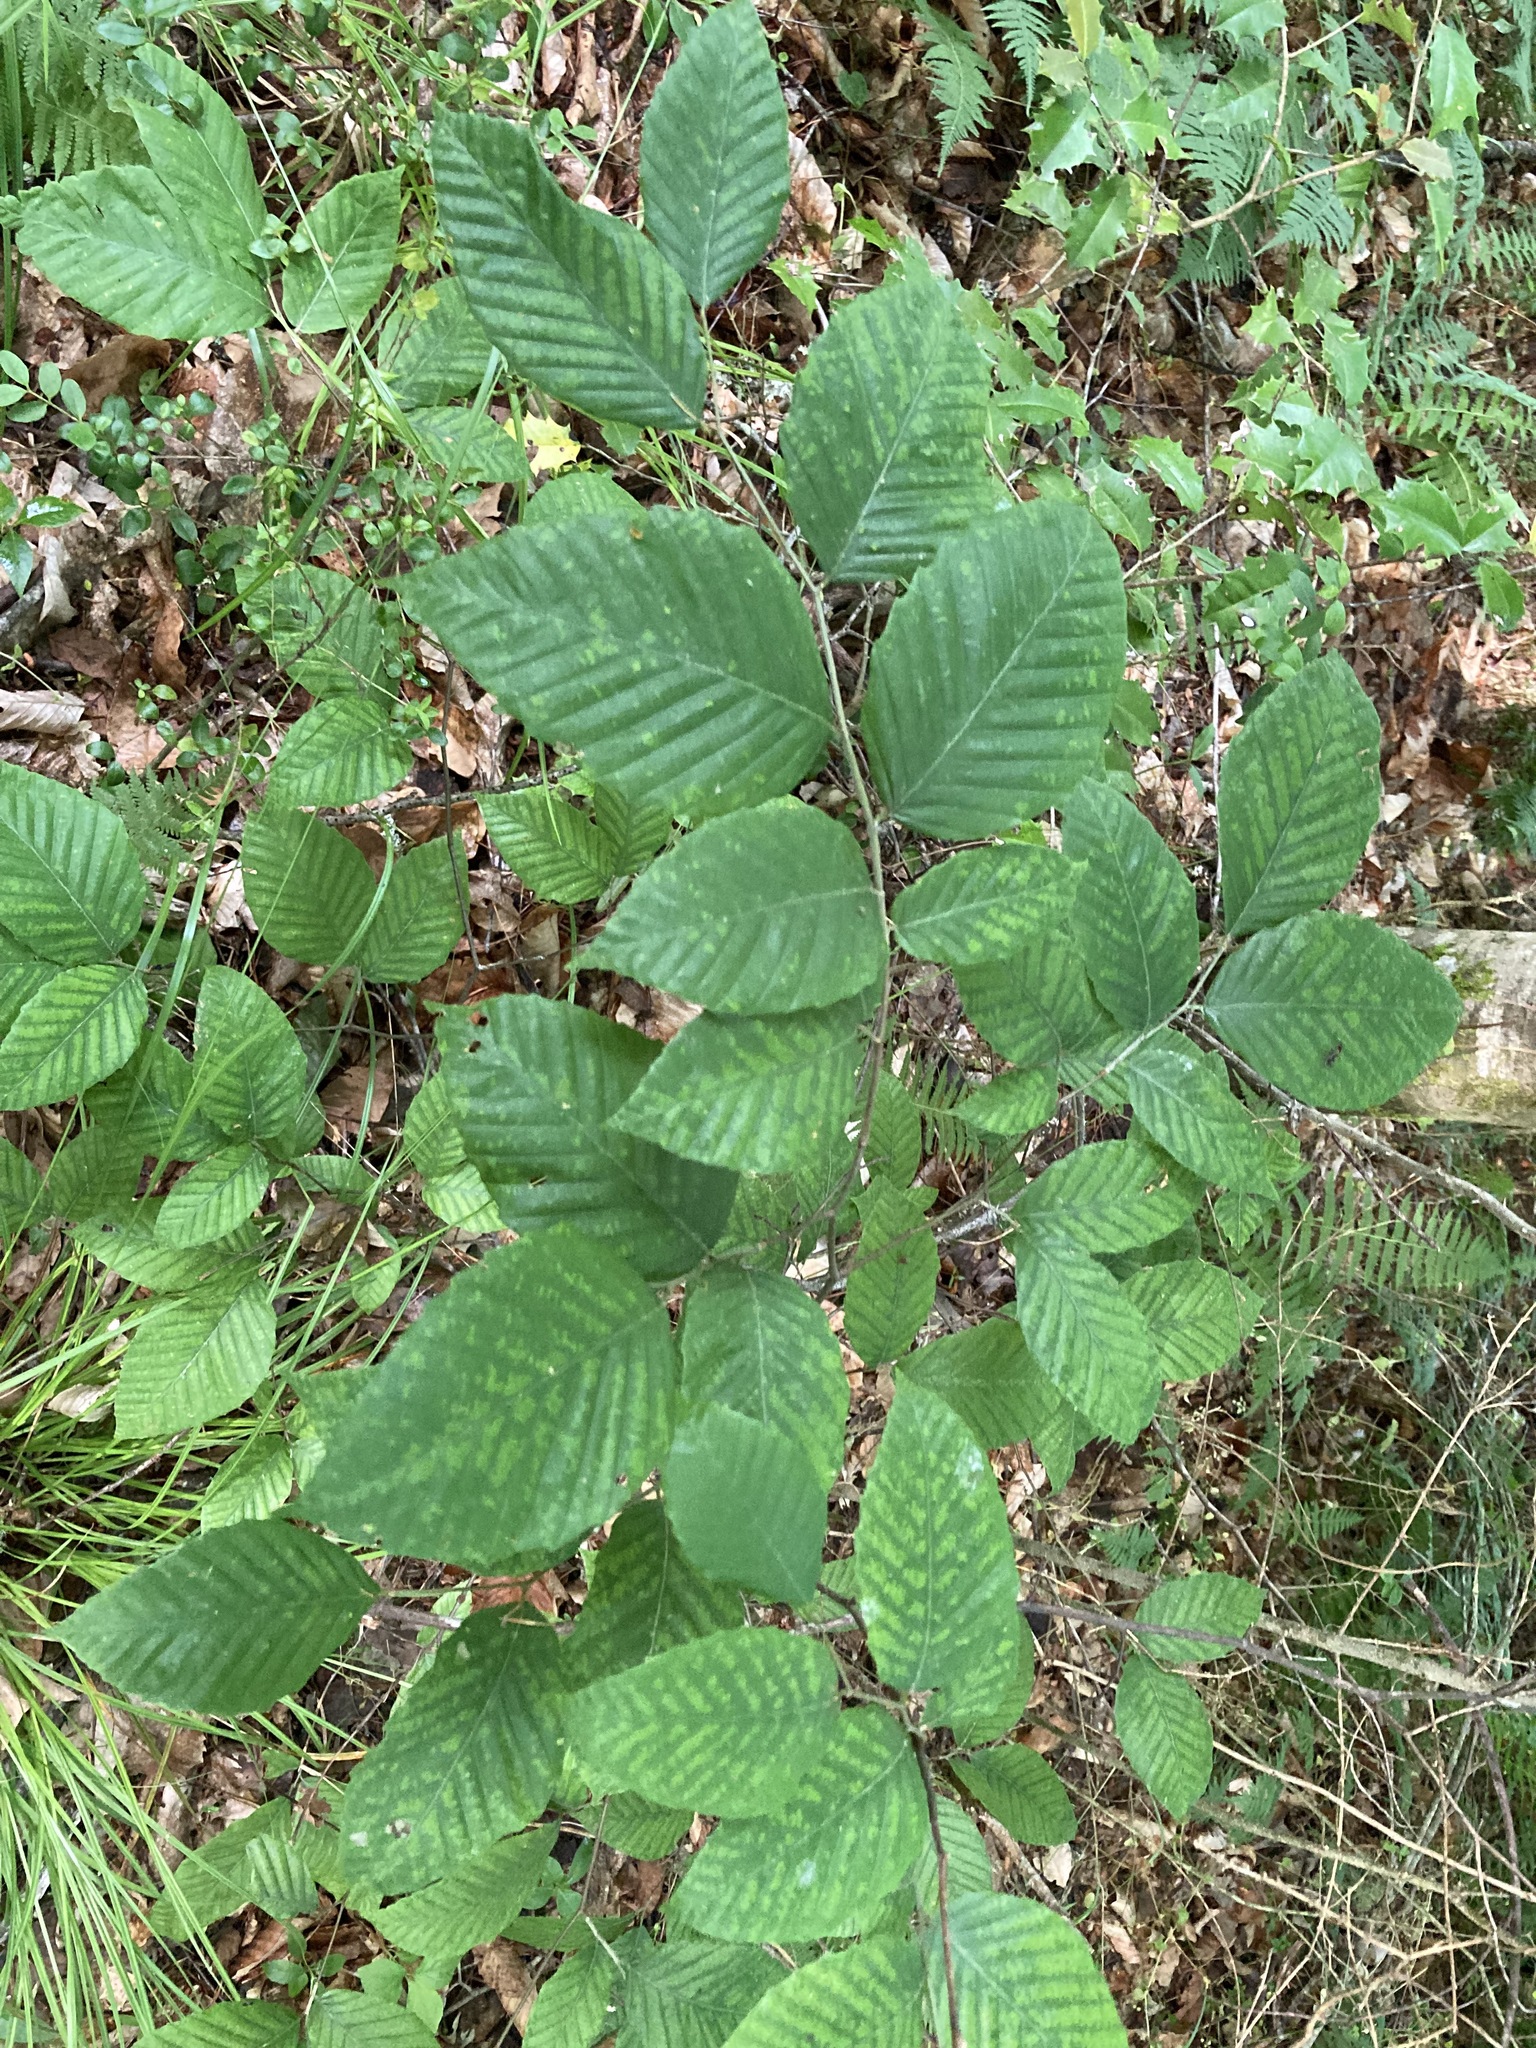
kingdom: Plantae
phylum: Tracheophyta
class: Magnoliopsida
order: Fagales
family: Fagaceae
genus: Fagus
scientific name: Fagus grandifolia
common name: American beech
